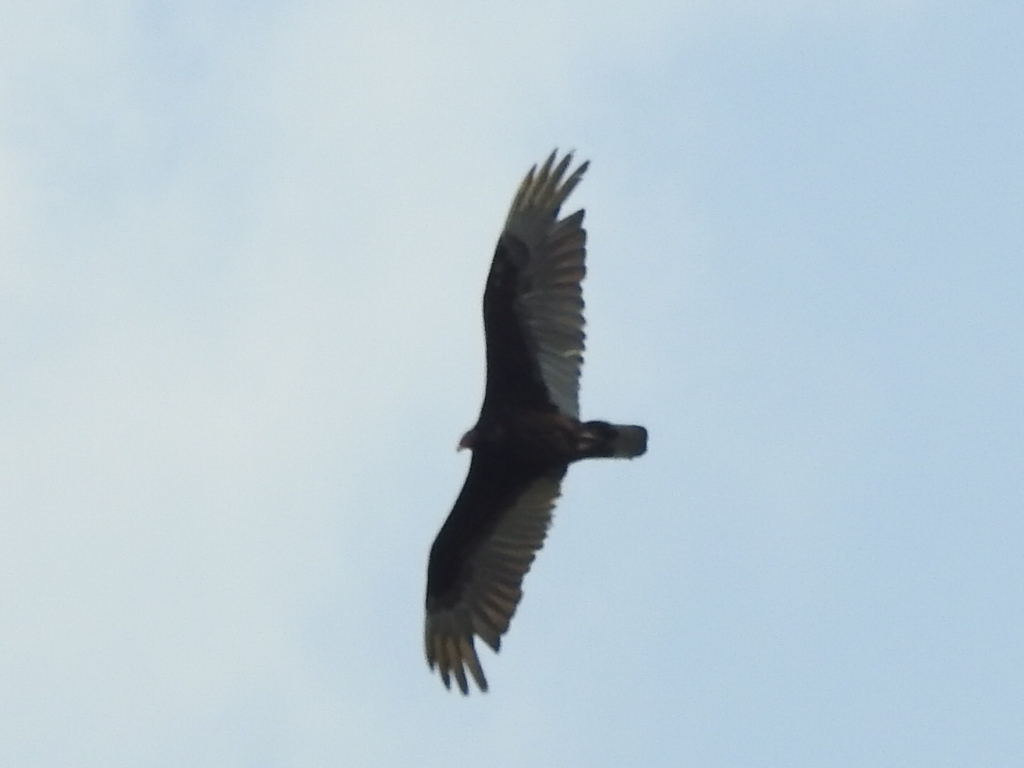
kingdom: Animalia
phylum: Chordata
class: Aves
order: Accipitriformes
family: Cathartidae
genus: Cathartes
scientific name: Cathartes aura
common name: Turkey vulture
